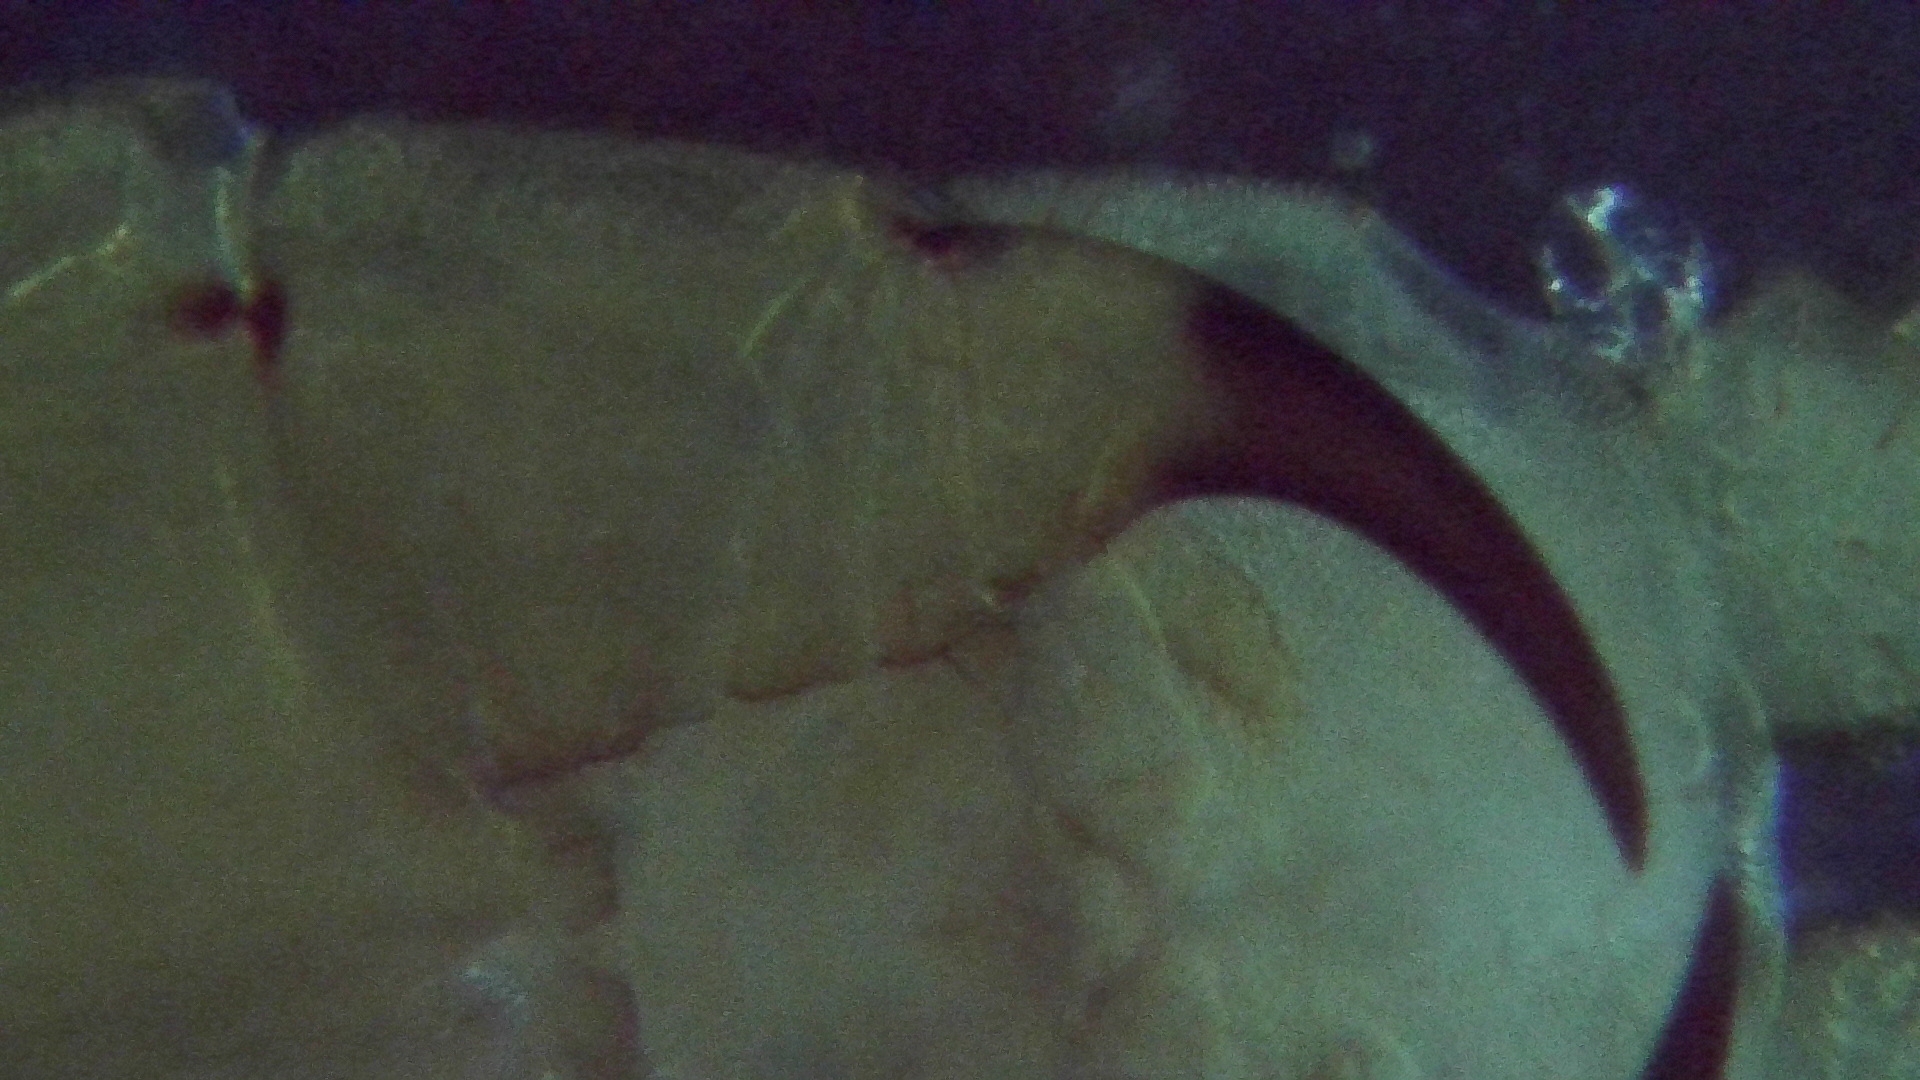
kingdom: Animalia
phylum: Arthropoda
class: Chilopoda
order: Geophilomorpha
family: Geophilidae
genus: Geophilus
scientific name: Geophilus insculptus
